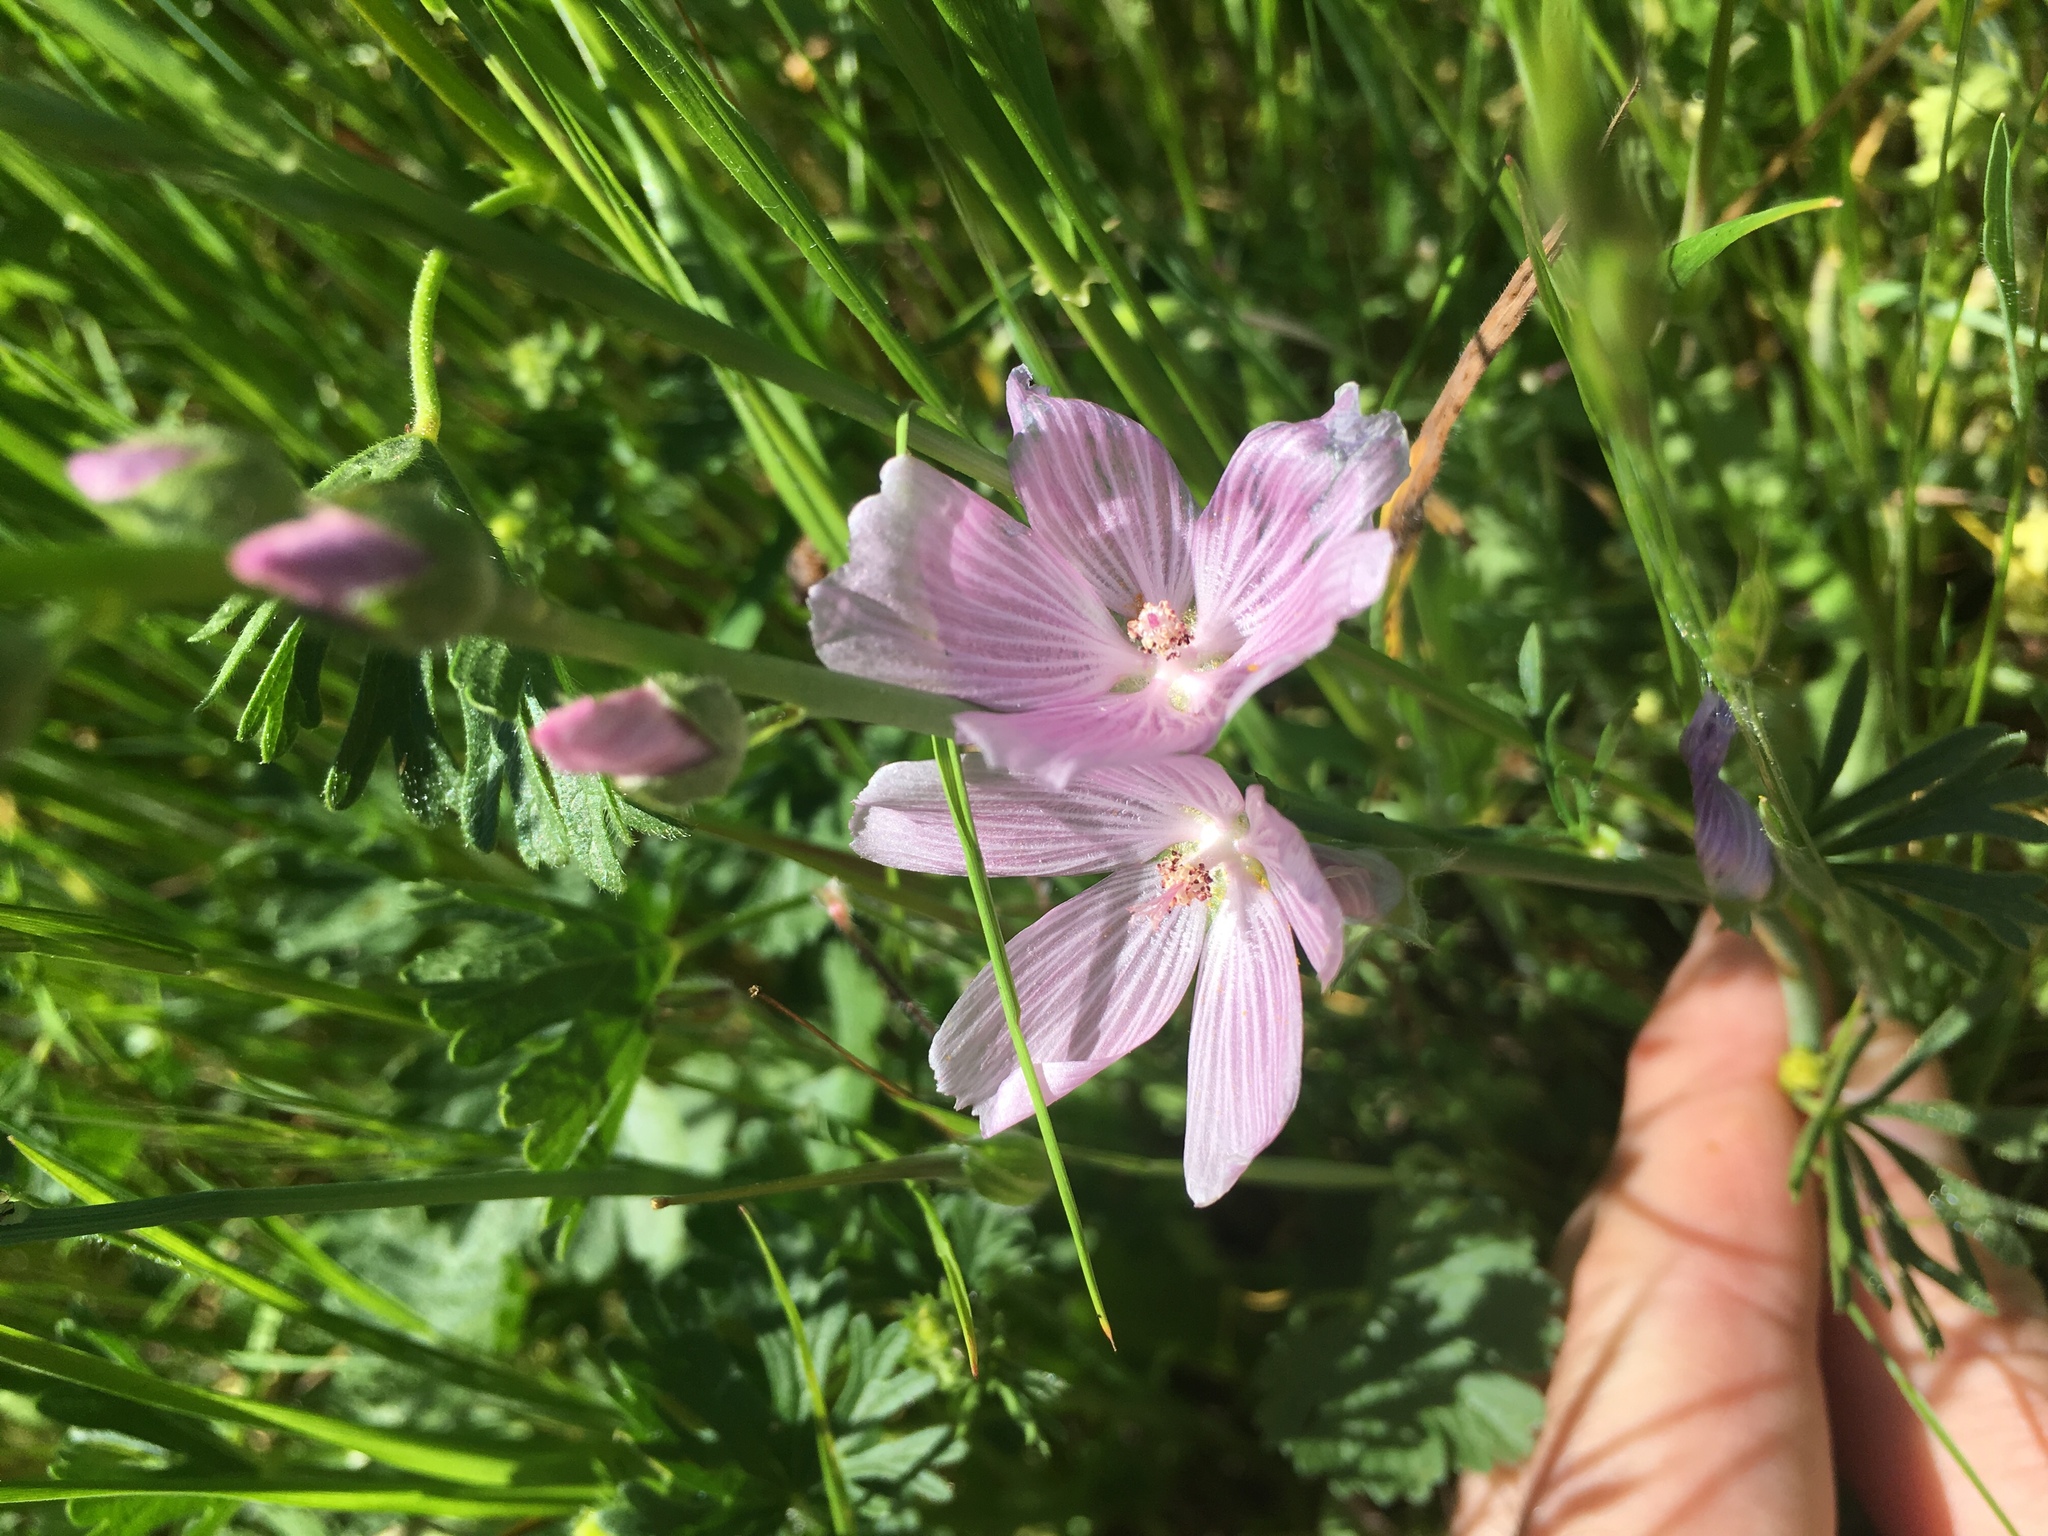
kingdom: Plantae
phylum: Tracheophyta
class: Magnoliopsida
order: Malvales
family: Malvaceae
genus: Sidalcea
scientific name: Sidalcea diploscypha
